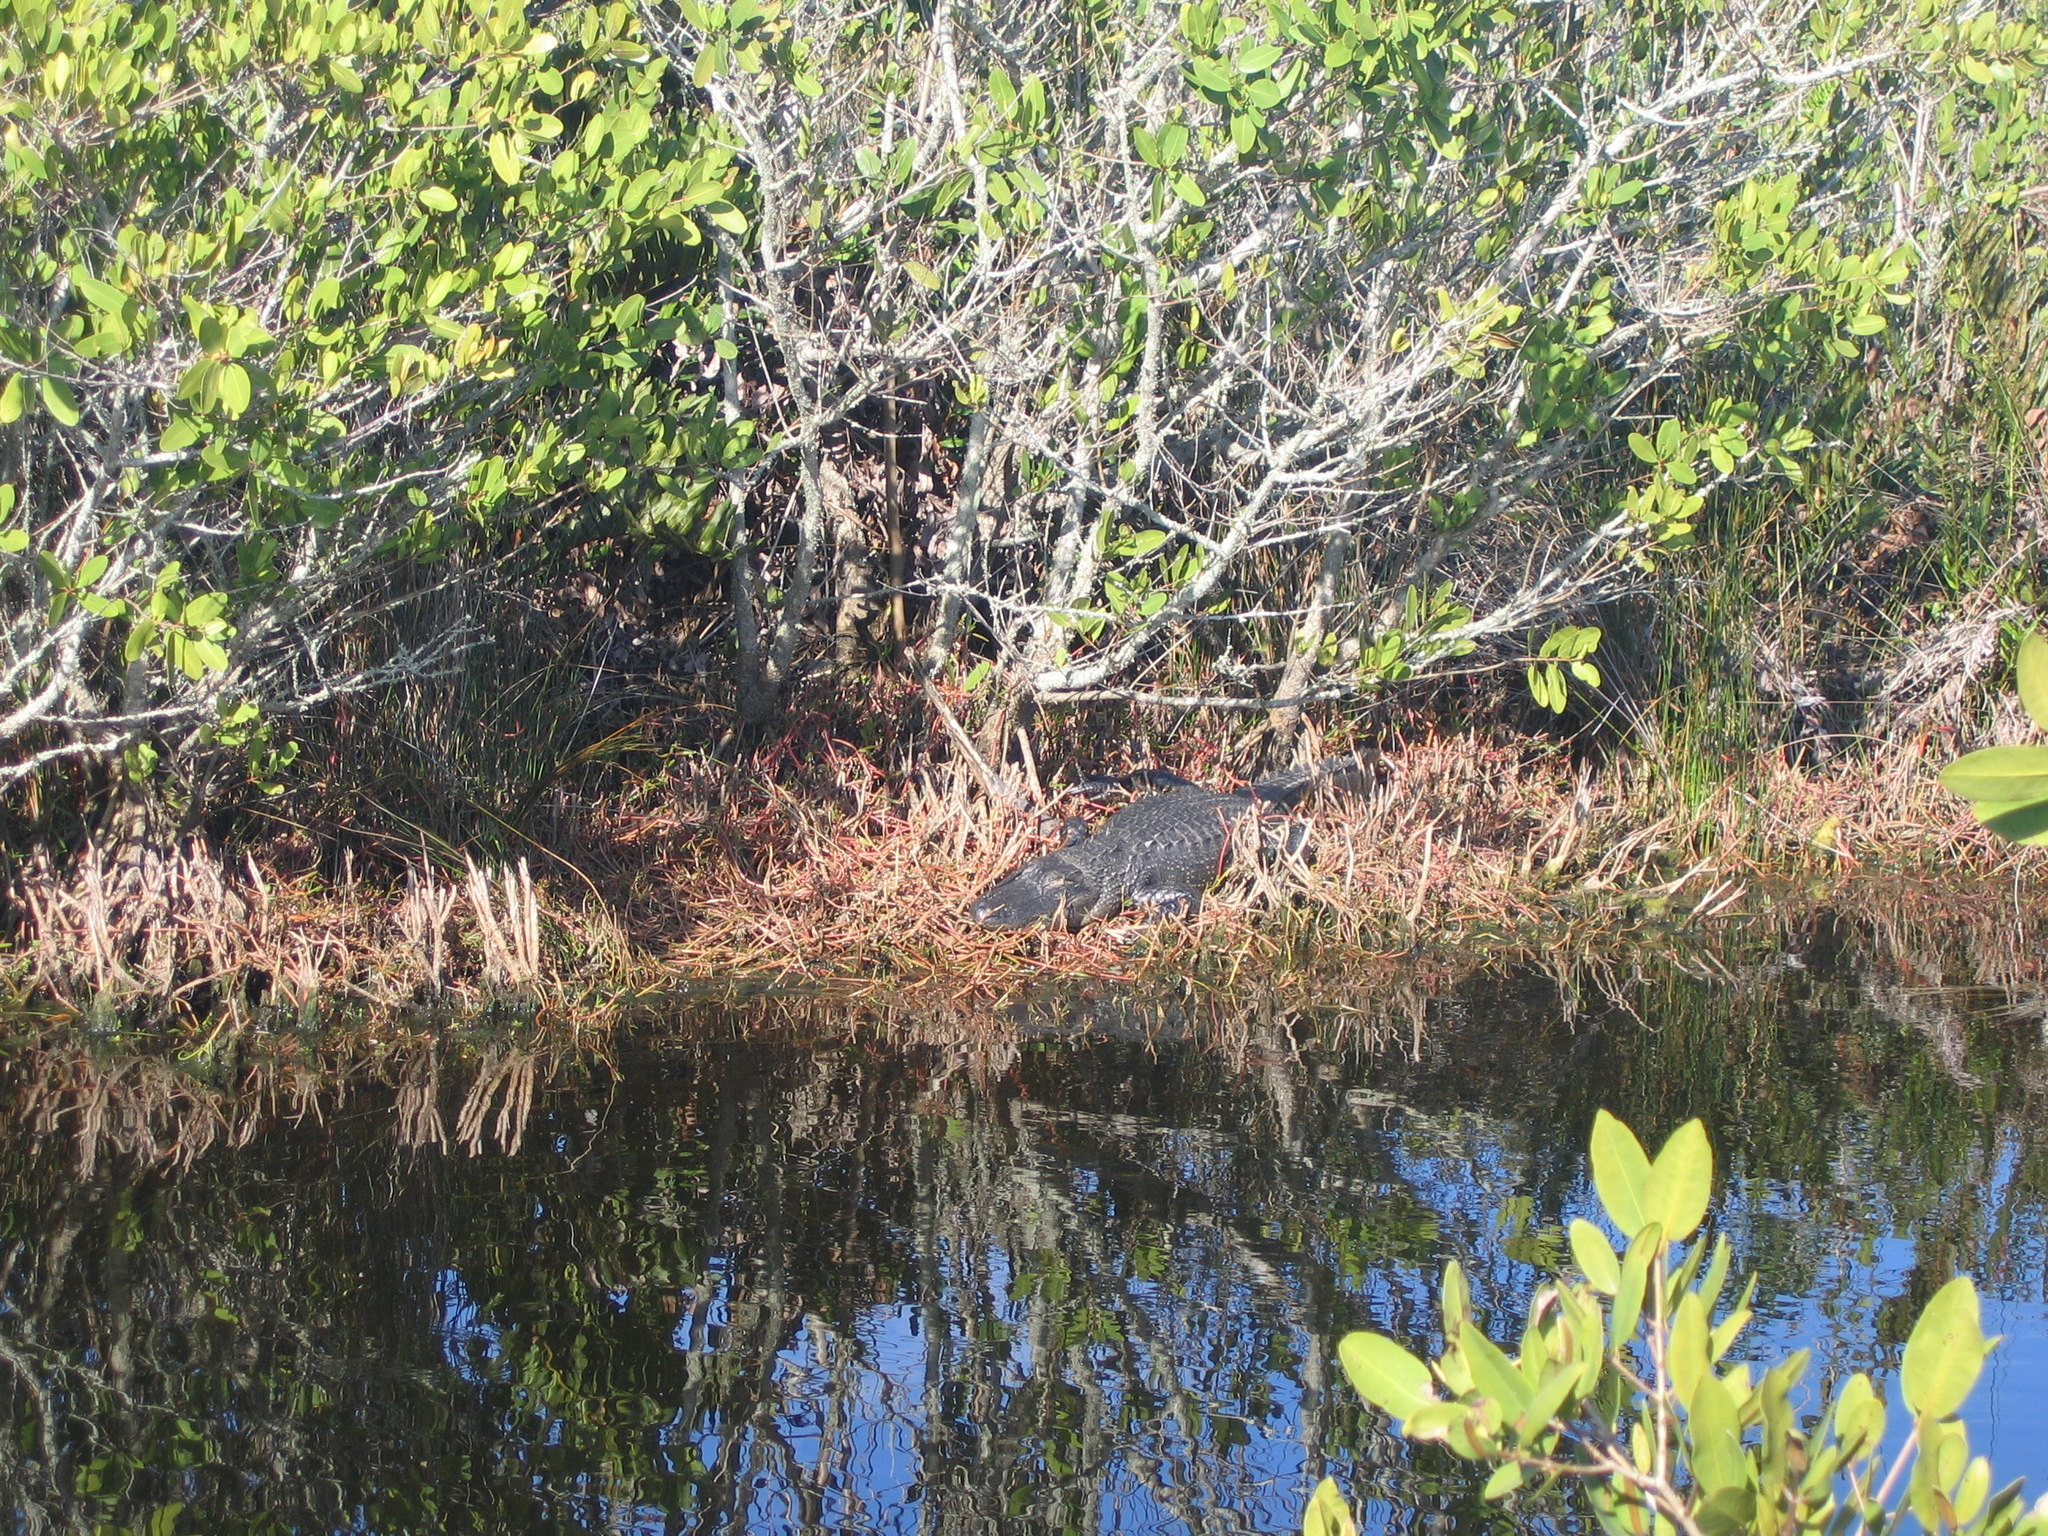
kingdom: Animalia
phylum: Chordata
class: Crocodylia
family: Alligatoridae
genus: Alligator
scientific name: Alligator mississippiensis
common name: American alligator
